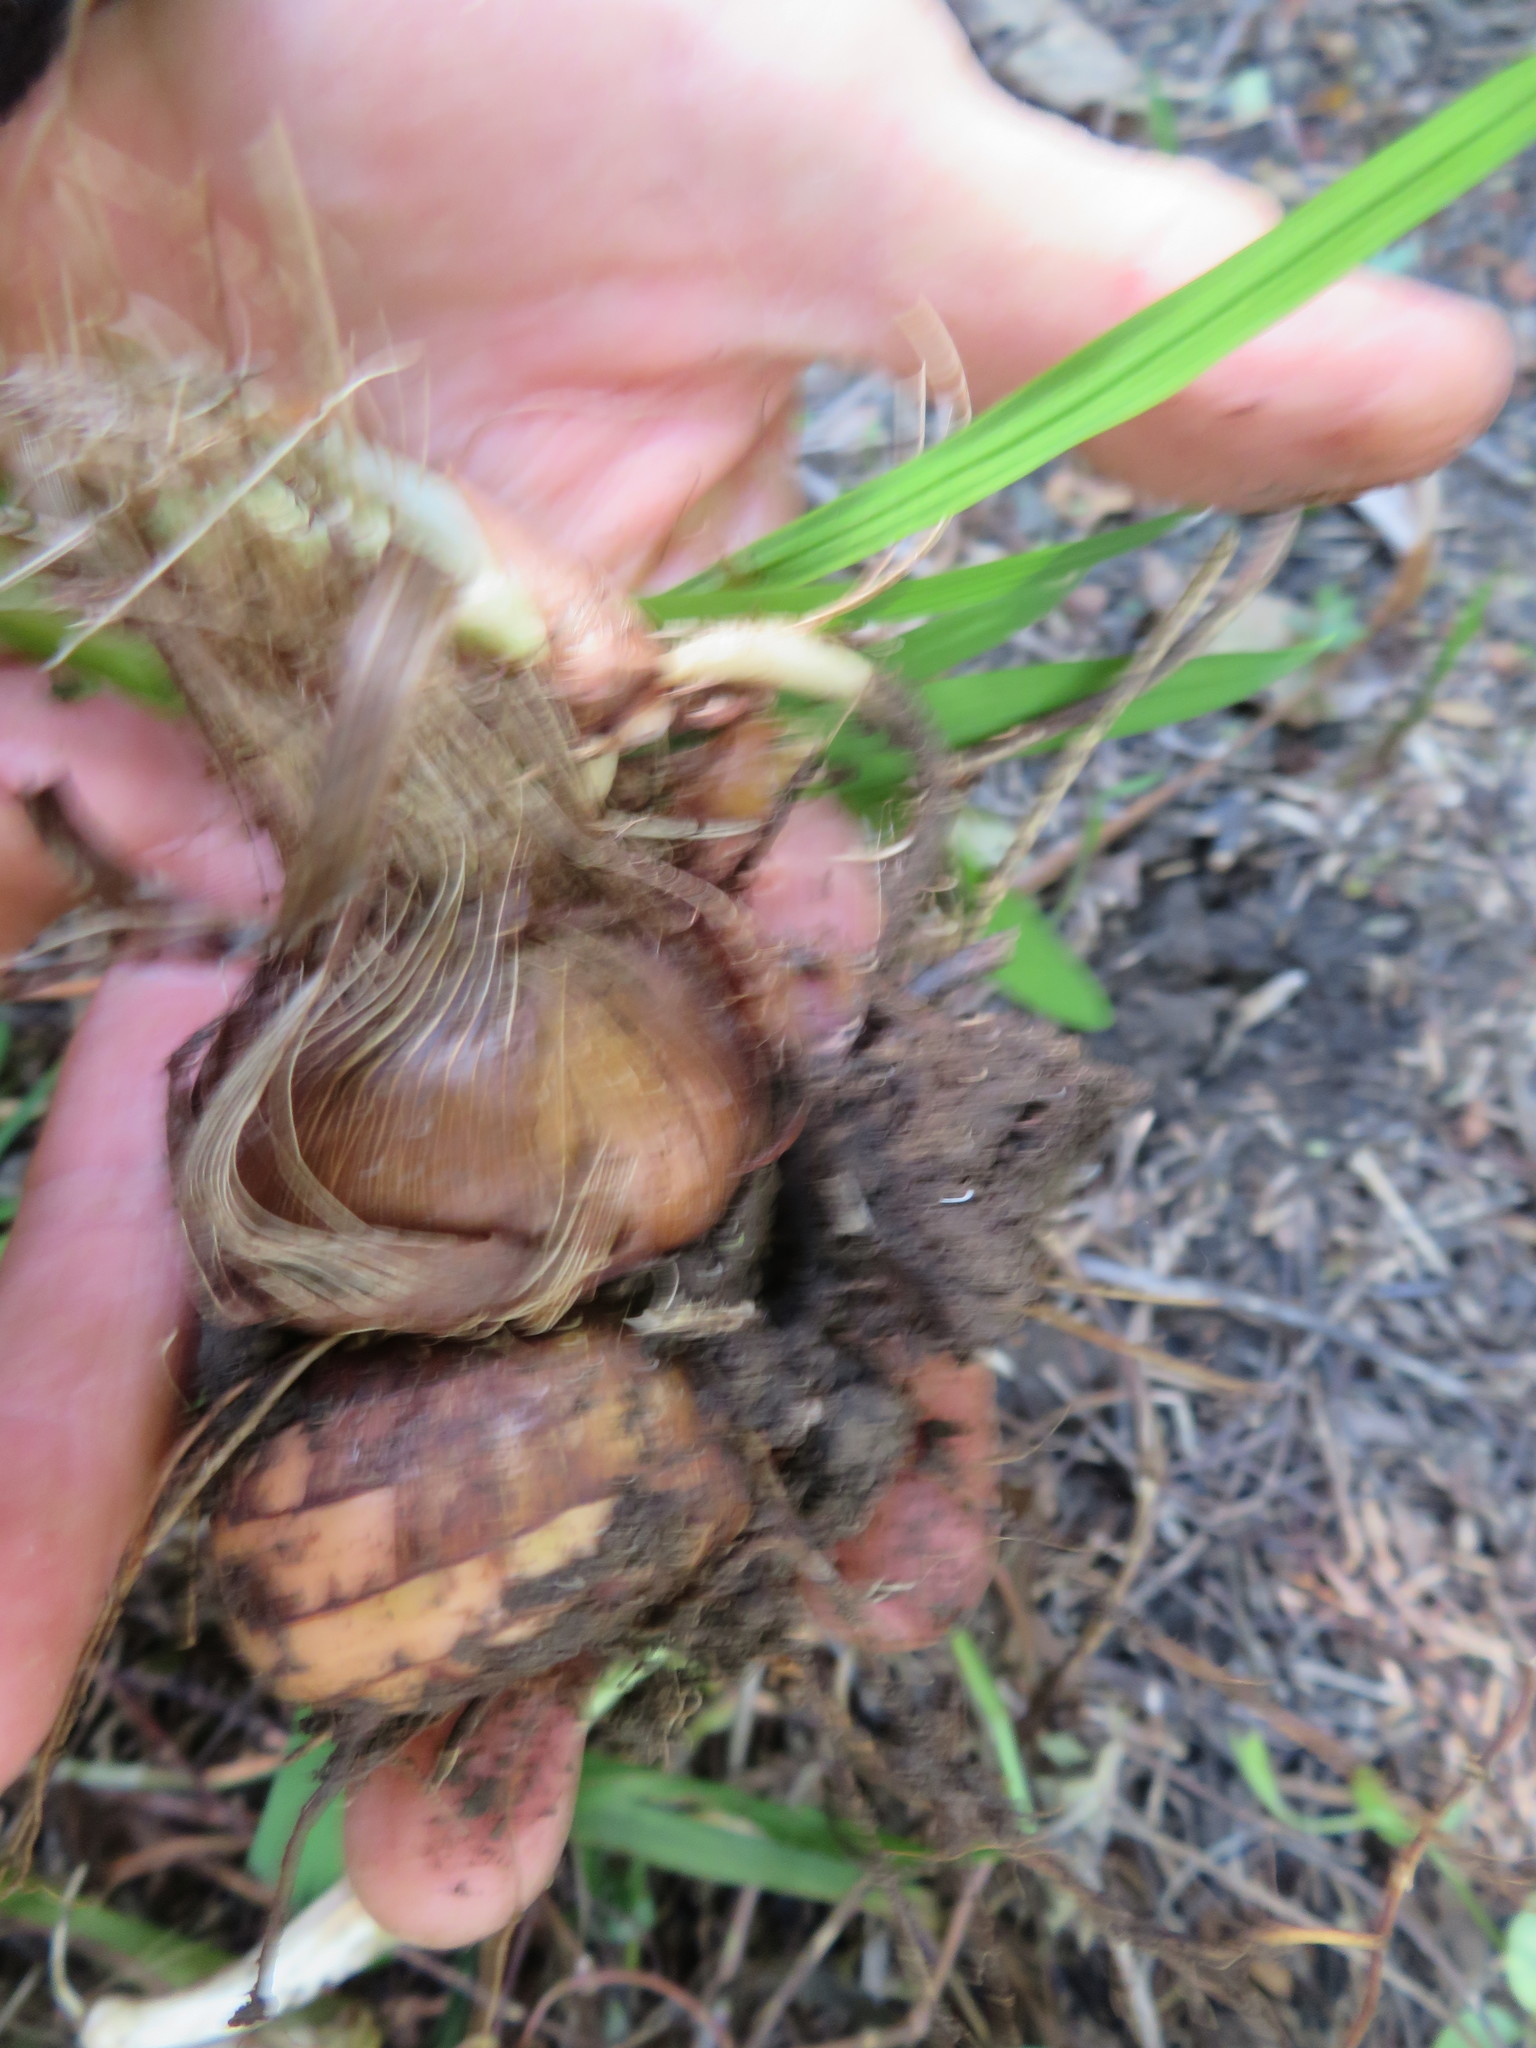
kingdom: Plantae
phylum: Tracheophyta
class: Liliopsida
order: Asparagales
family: Iridaceae
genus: Crocosmia
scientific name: Crocosmia crocosmiiflora
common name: Montbretia
